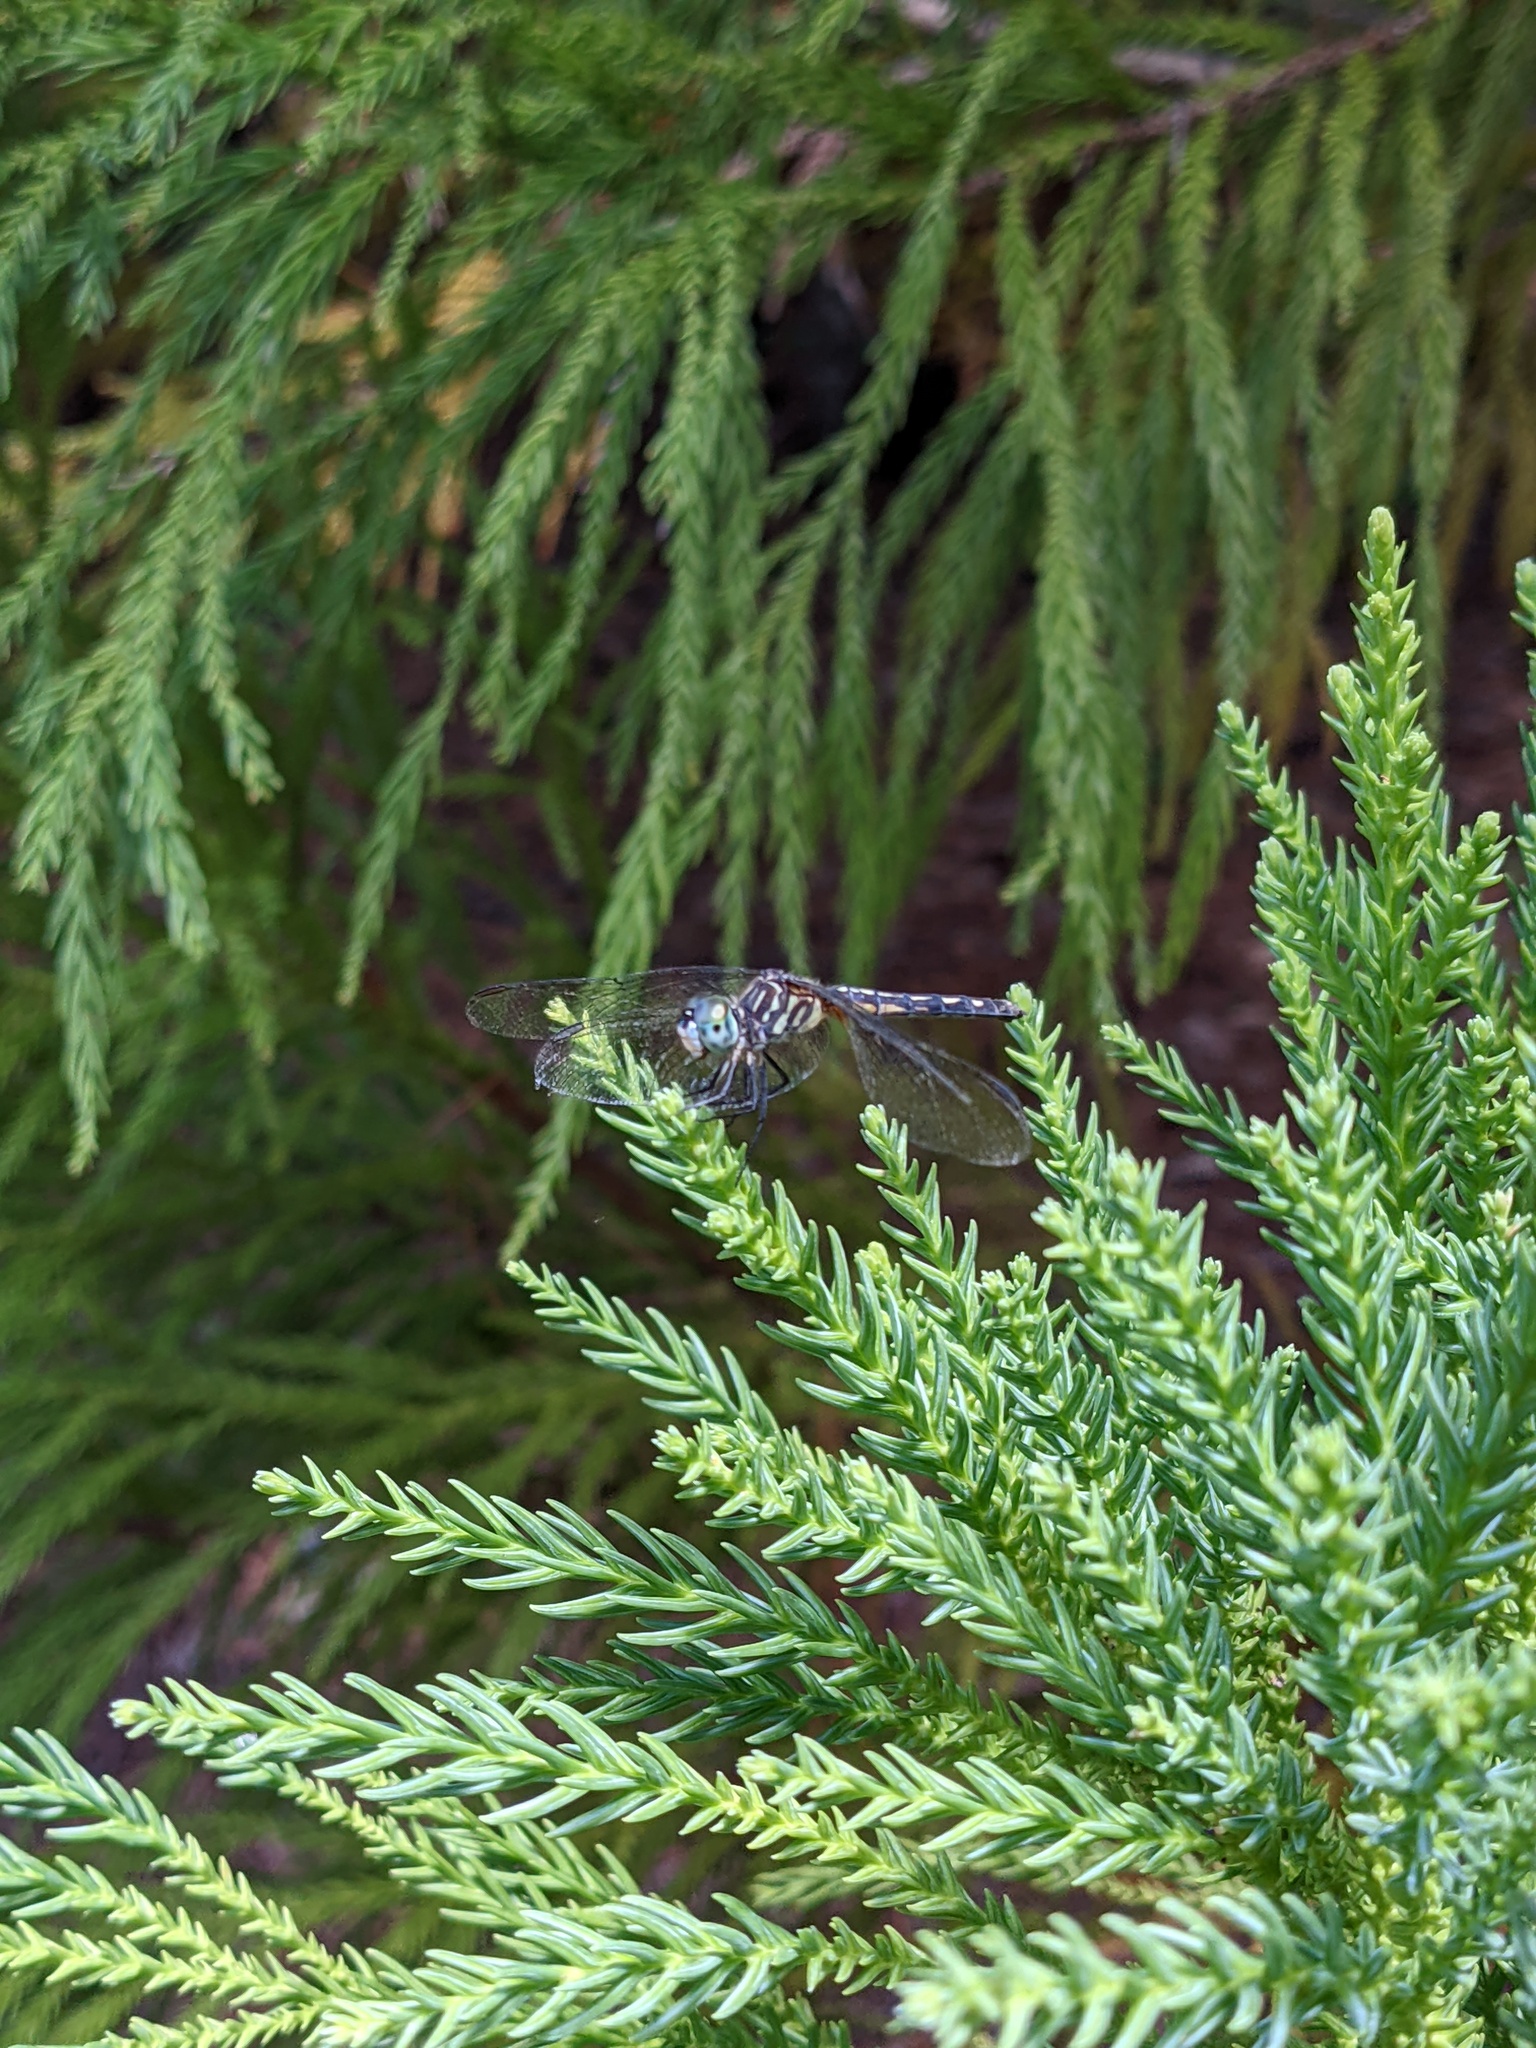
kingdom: Animalia
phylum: Arthropoda
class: Insecta
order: Odonata
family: Libellulidae
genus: Pachydiplax
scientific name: Pachydiplax longipennis
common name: Blue dasher
